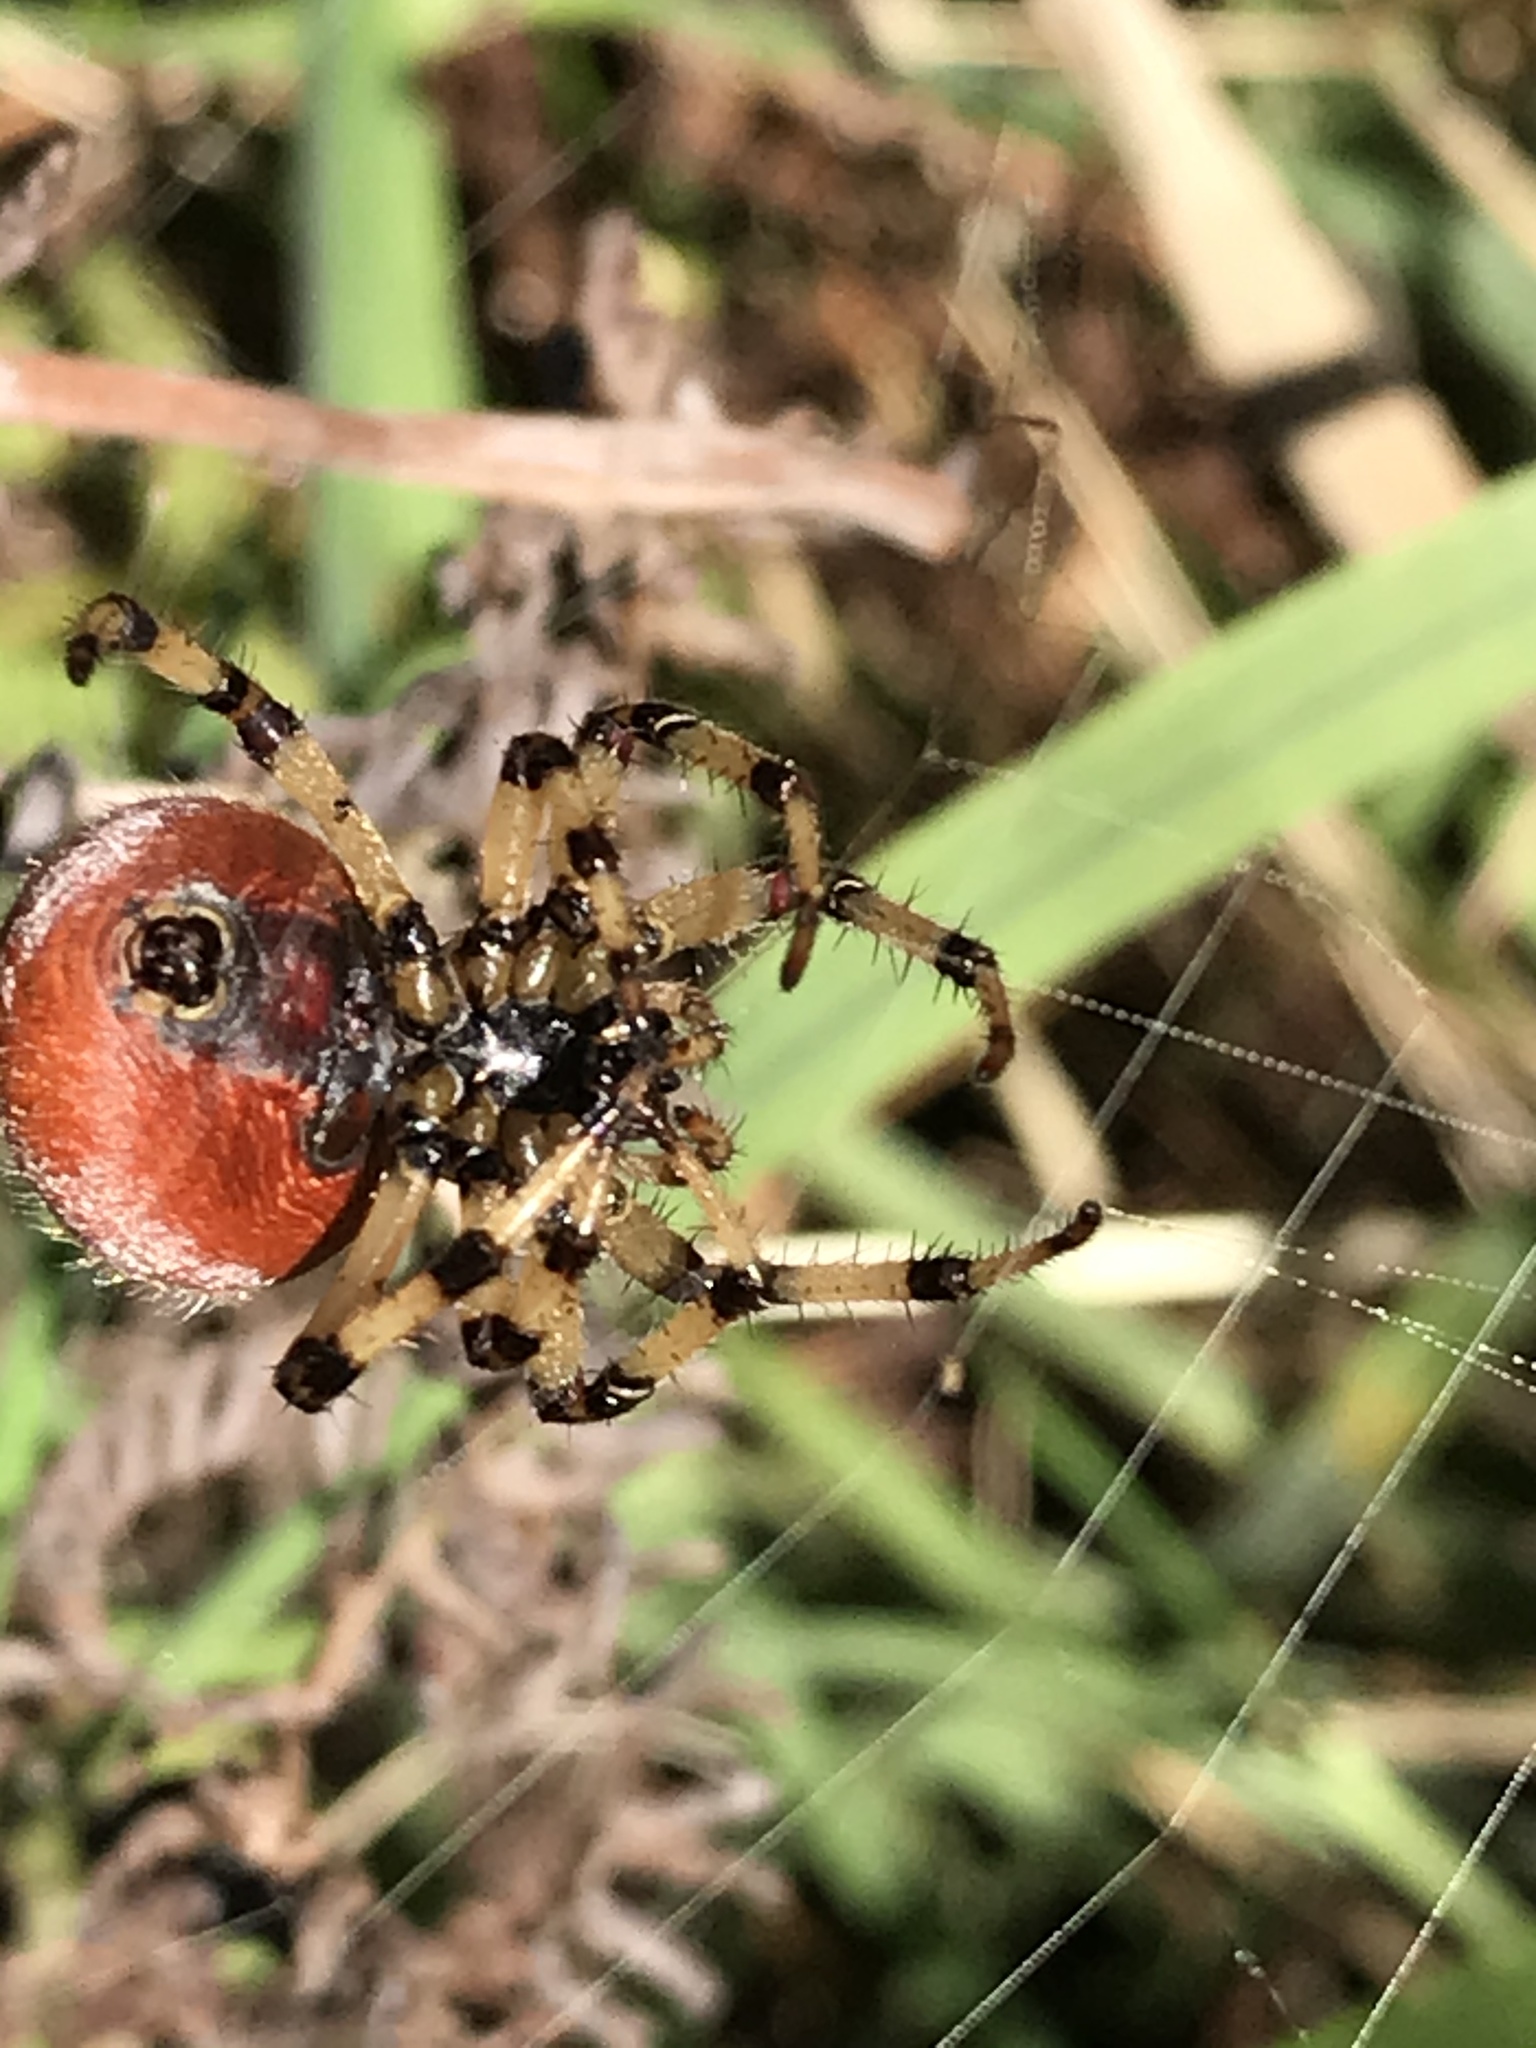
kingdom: Animalia
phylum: Arthropoda
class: Arachnida
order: Araneae
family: Araneidae
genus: Araneus
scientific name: Araneus trifolium
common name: Shamrock orbweaver
